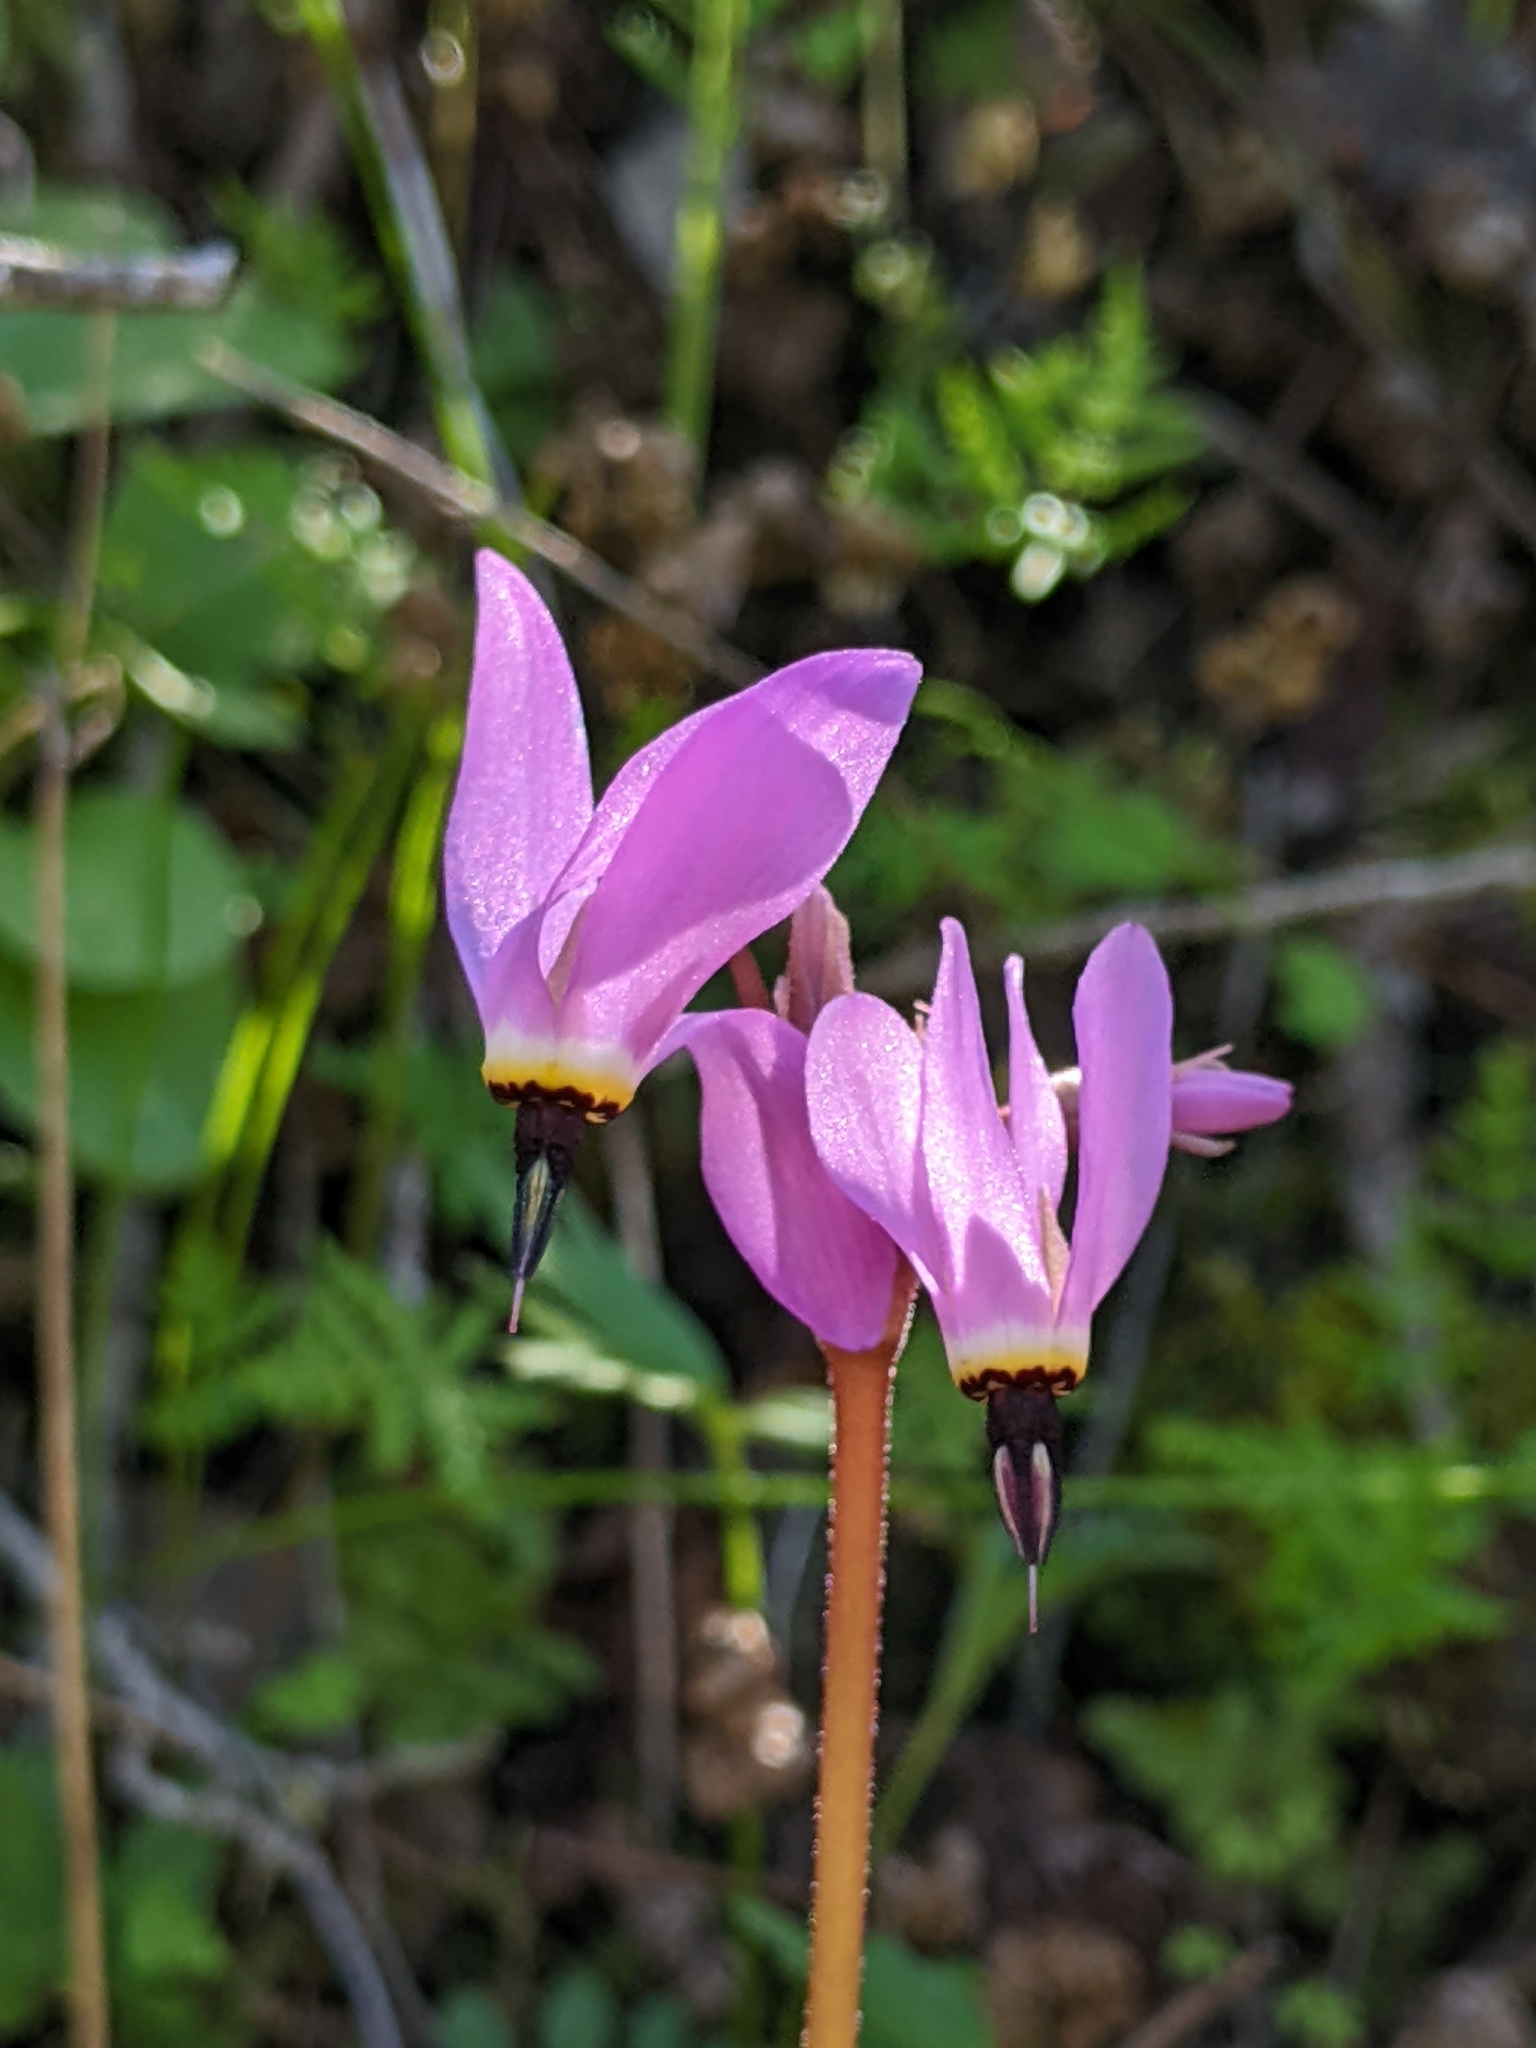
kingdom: Plantae
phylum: Tracheophyta
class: Magnoliopsida
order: Ericales
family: Primulaceae
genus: Dodecatheon
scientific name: Dodecatheon hendersonii
